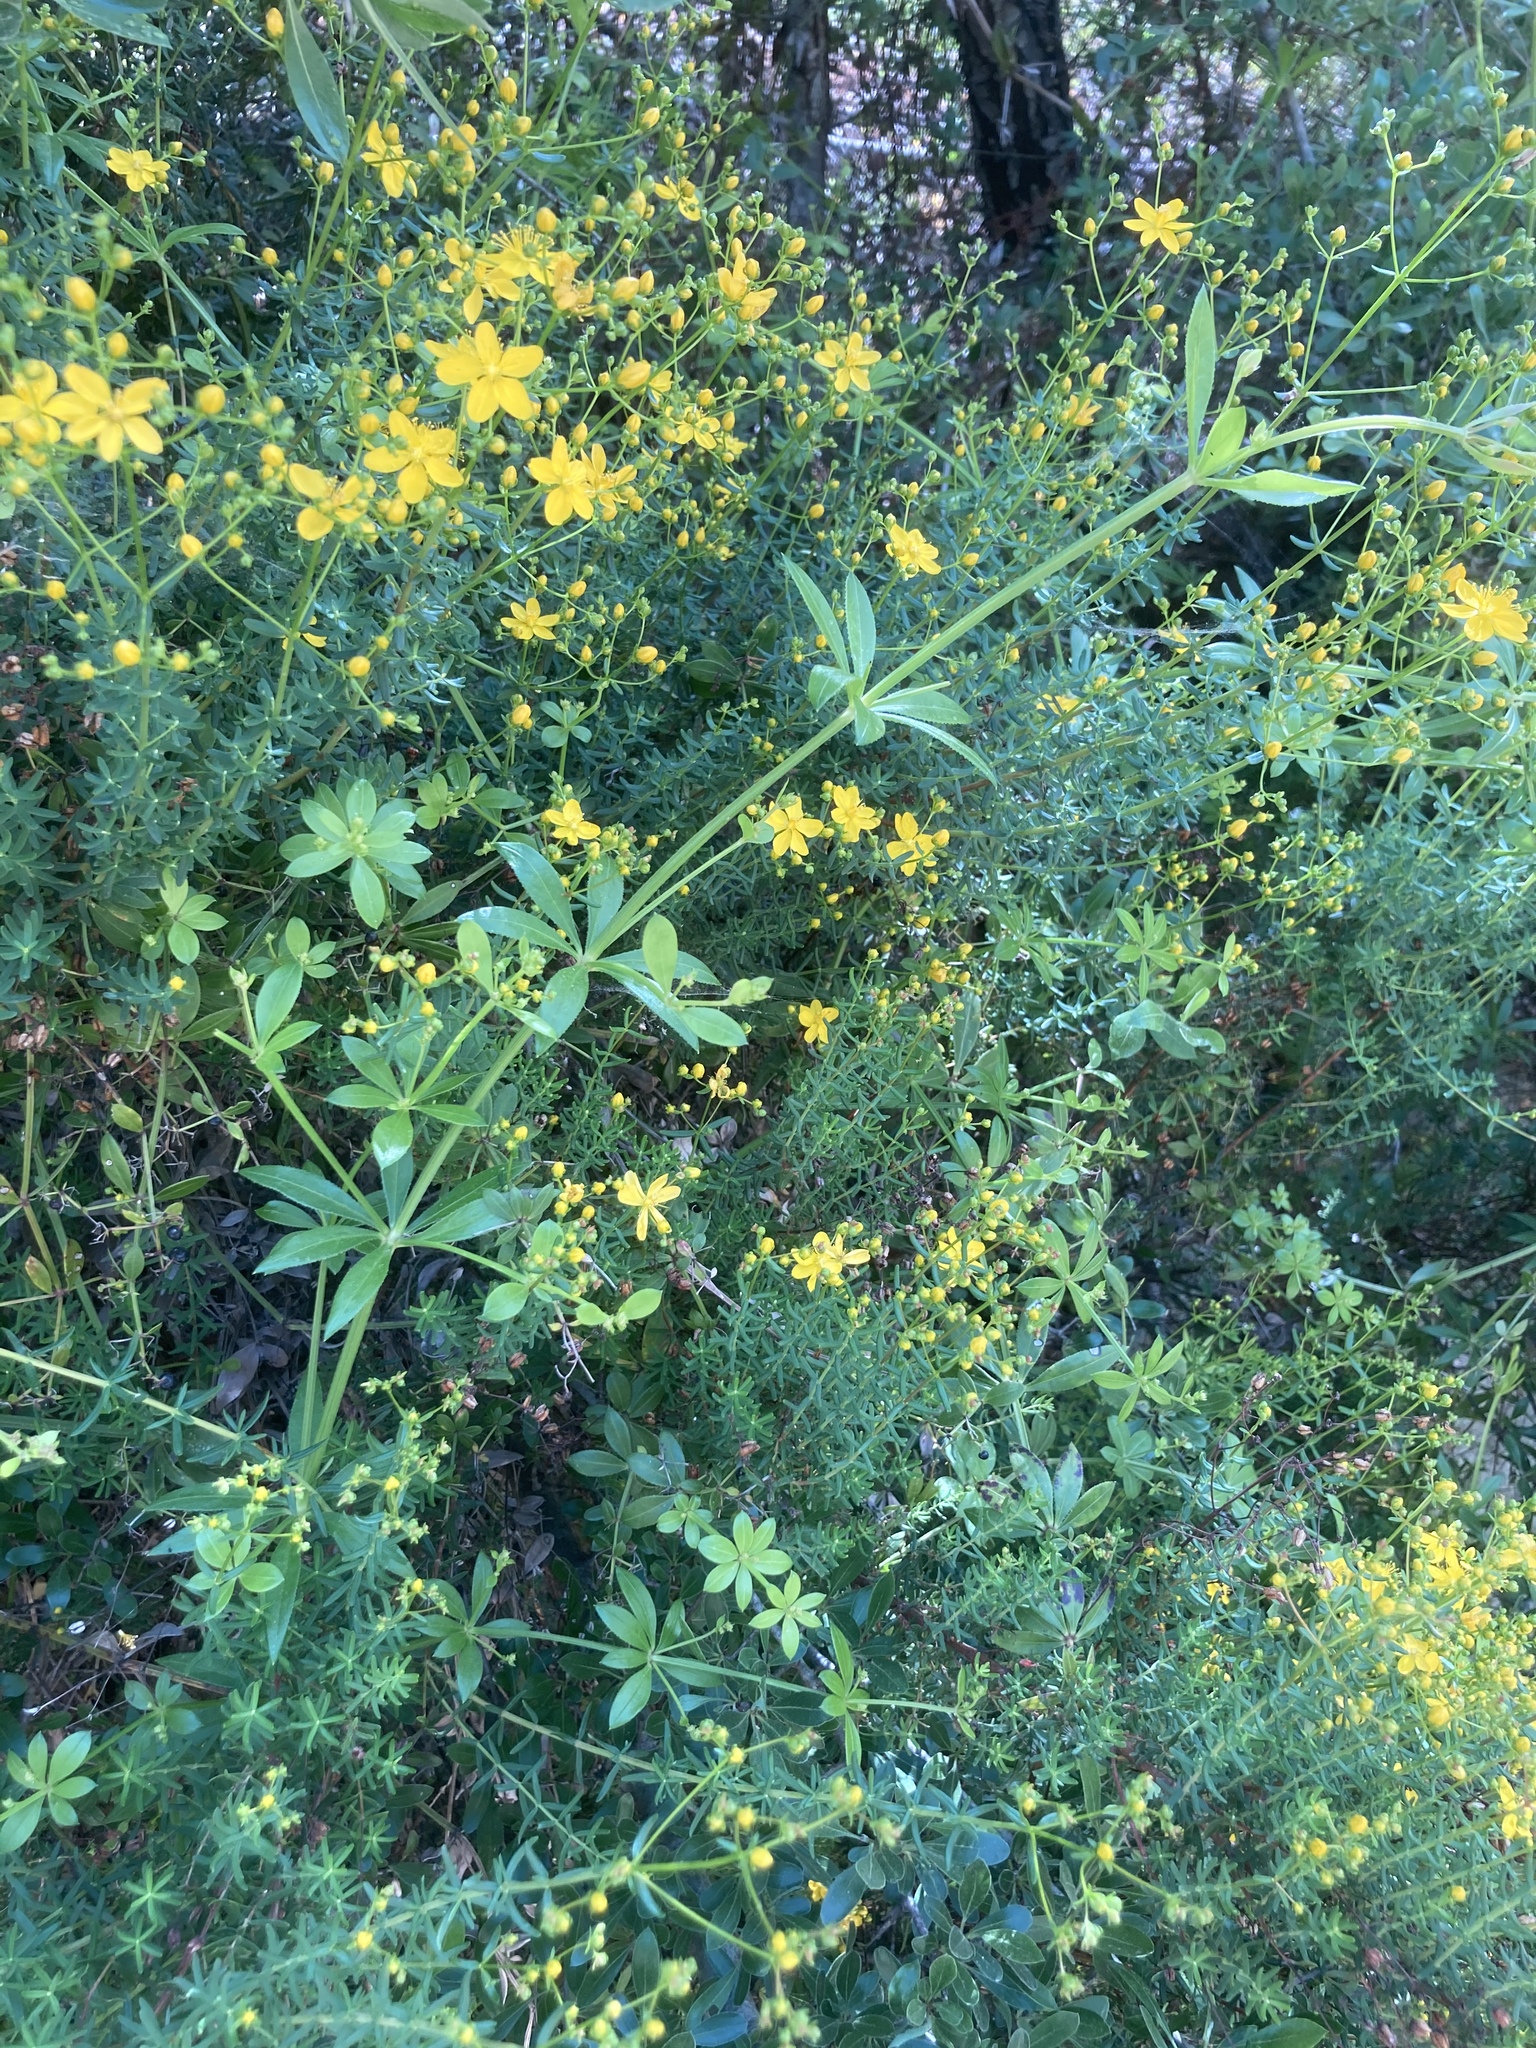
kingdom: Plantae
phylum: Tracheophyta
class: Magnoliopsida
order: Gentianales
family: Rubiaceae
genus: Rubia
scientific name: Rubia tinctorum
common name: Dyer's madder
